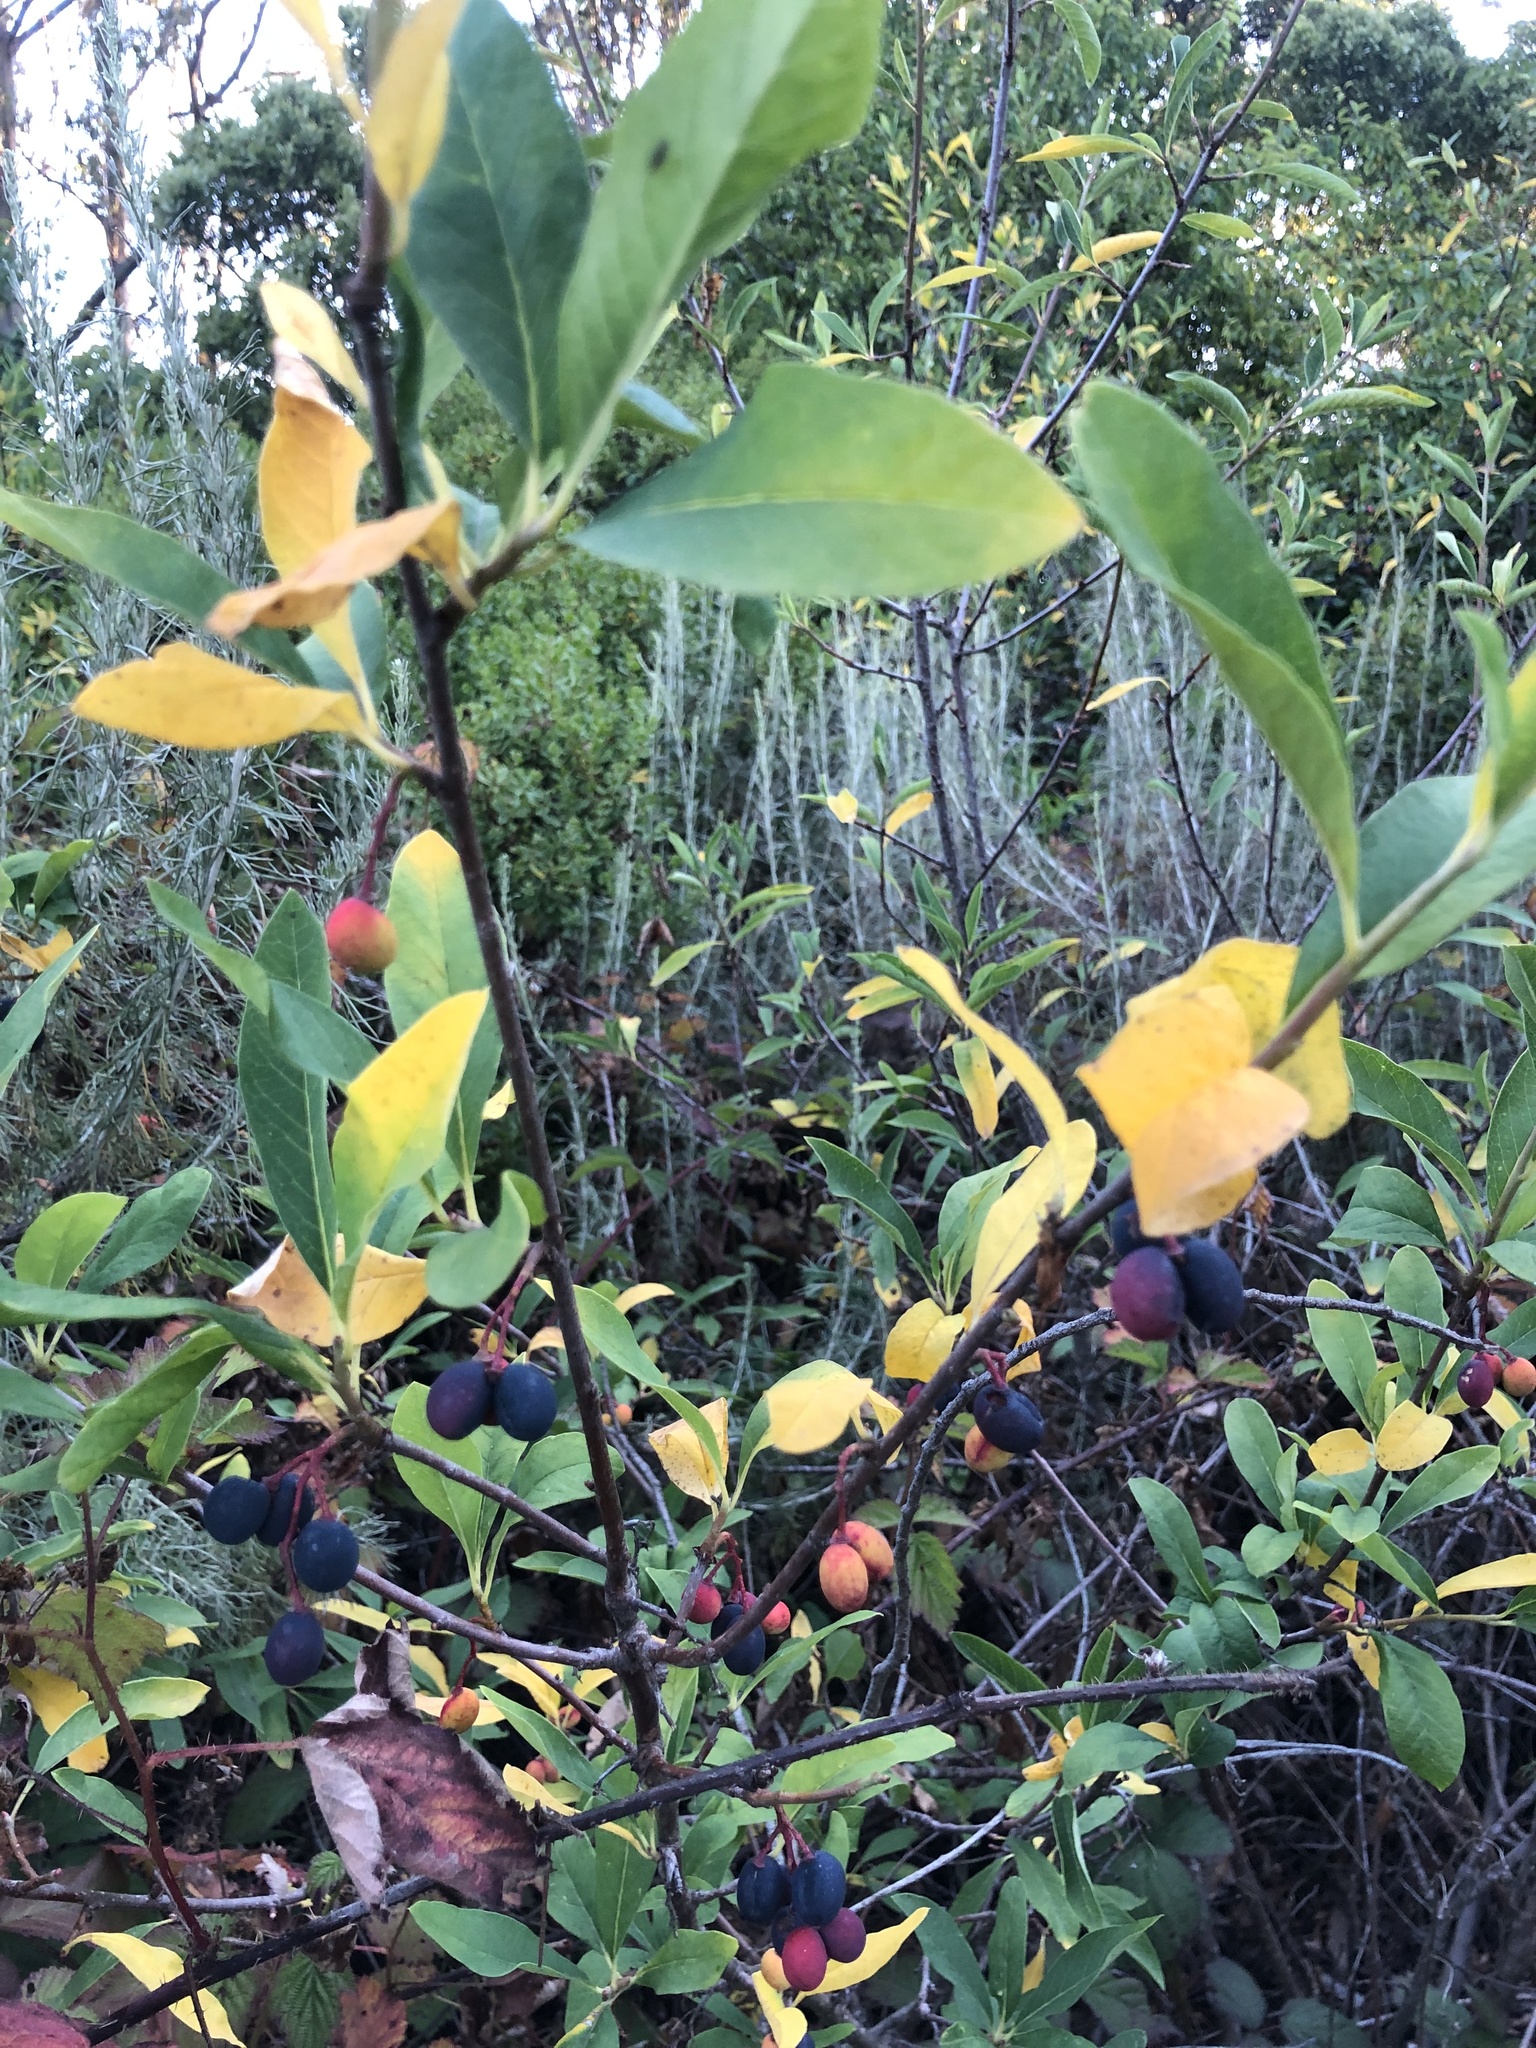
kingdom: Plantae
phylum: Tracheophyta
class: Magnoliopsida
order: Rosales
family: Rosaceae
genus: Oemleria
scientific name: Oemleria cerasiformis
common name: Osoberry
